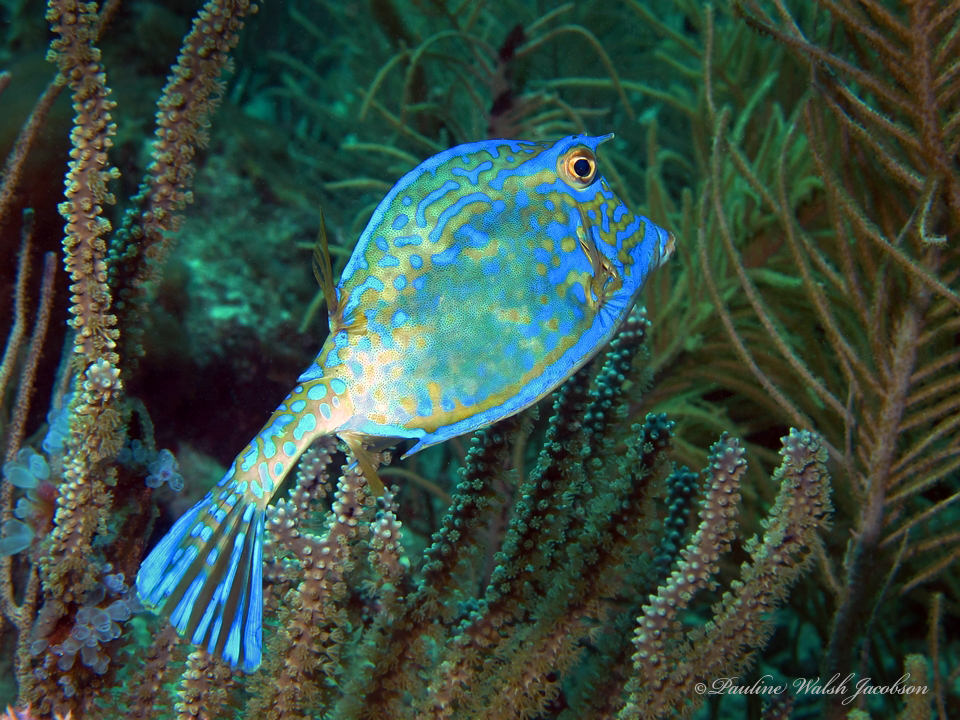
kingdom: Animalia
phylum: Chordata
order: Tetraodontiformes
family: Ostraciidae
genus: Acanthostracion
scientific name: Acanthostracion quadricornis
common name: Scrawled cowfish
